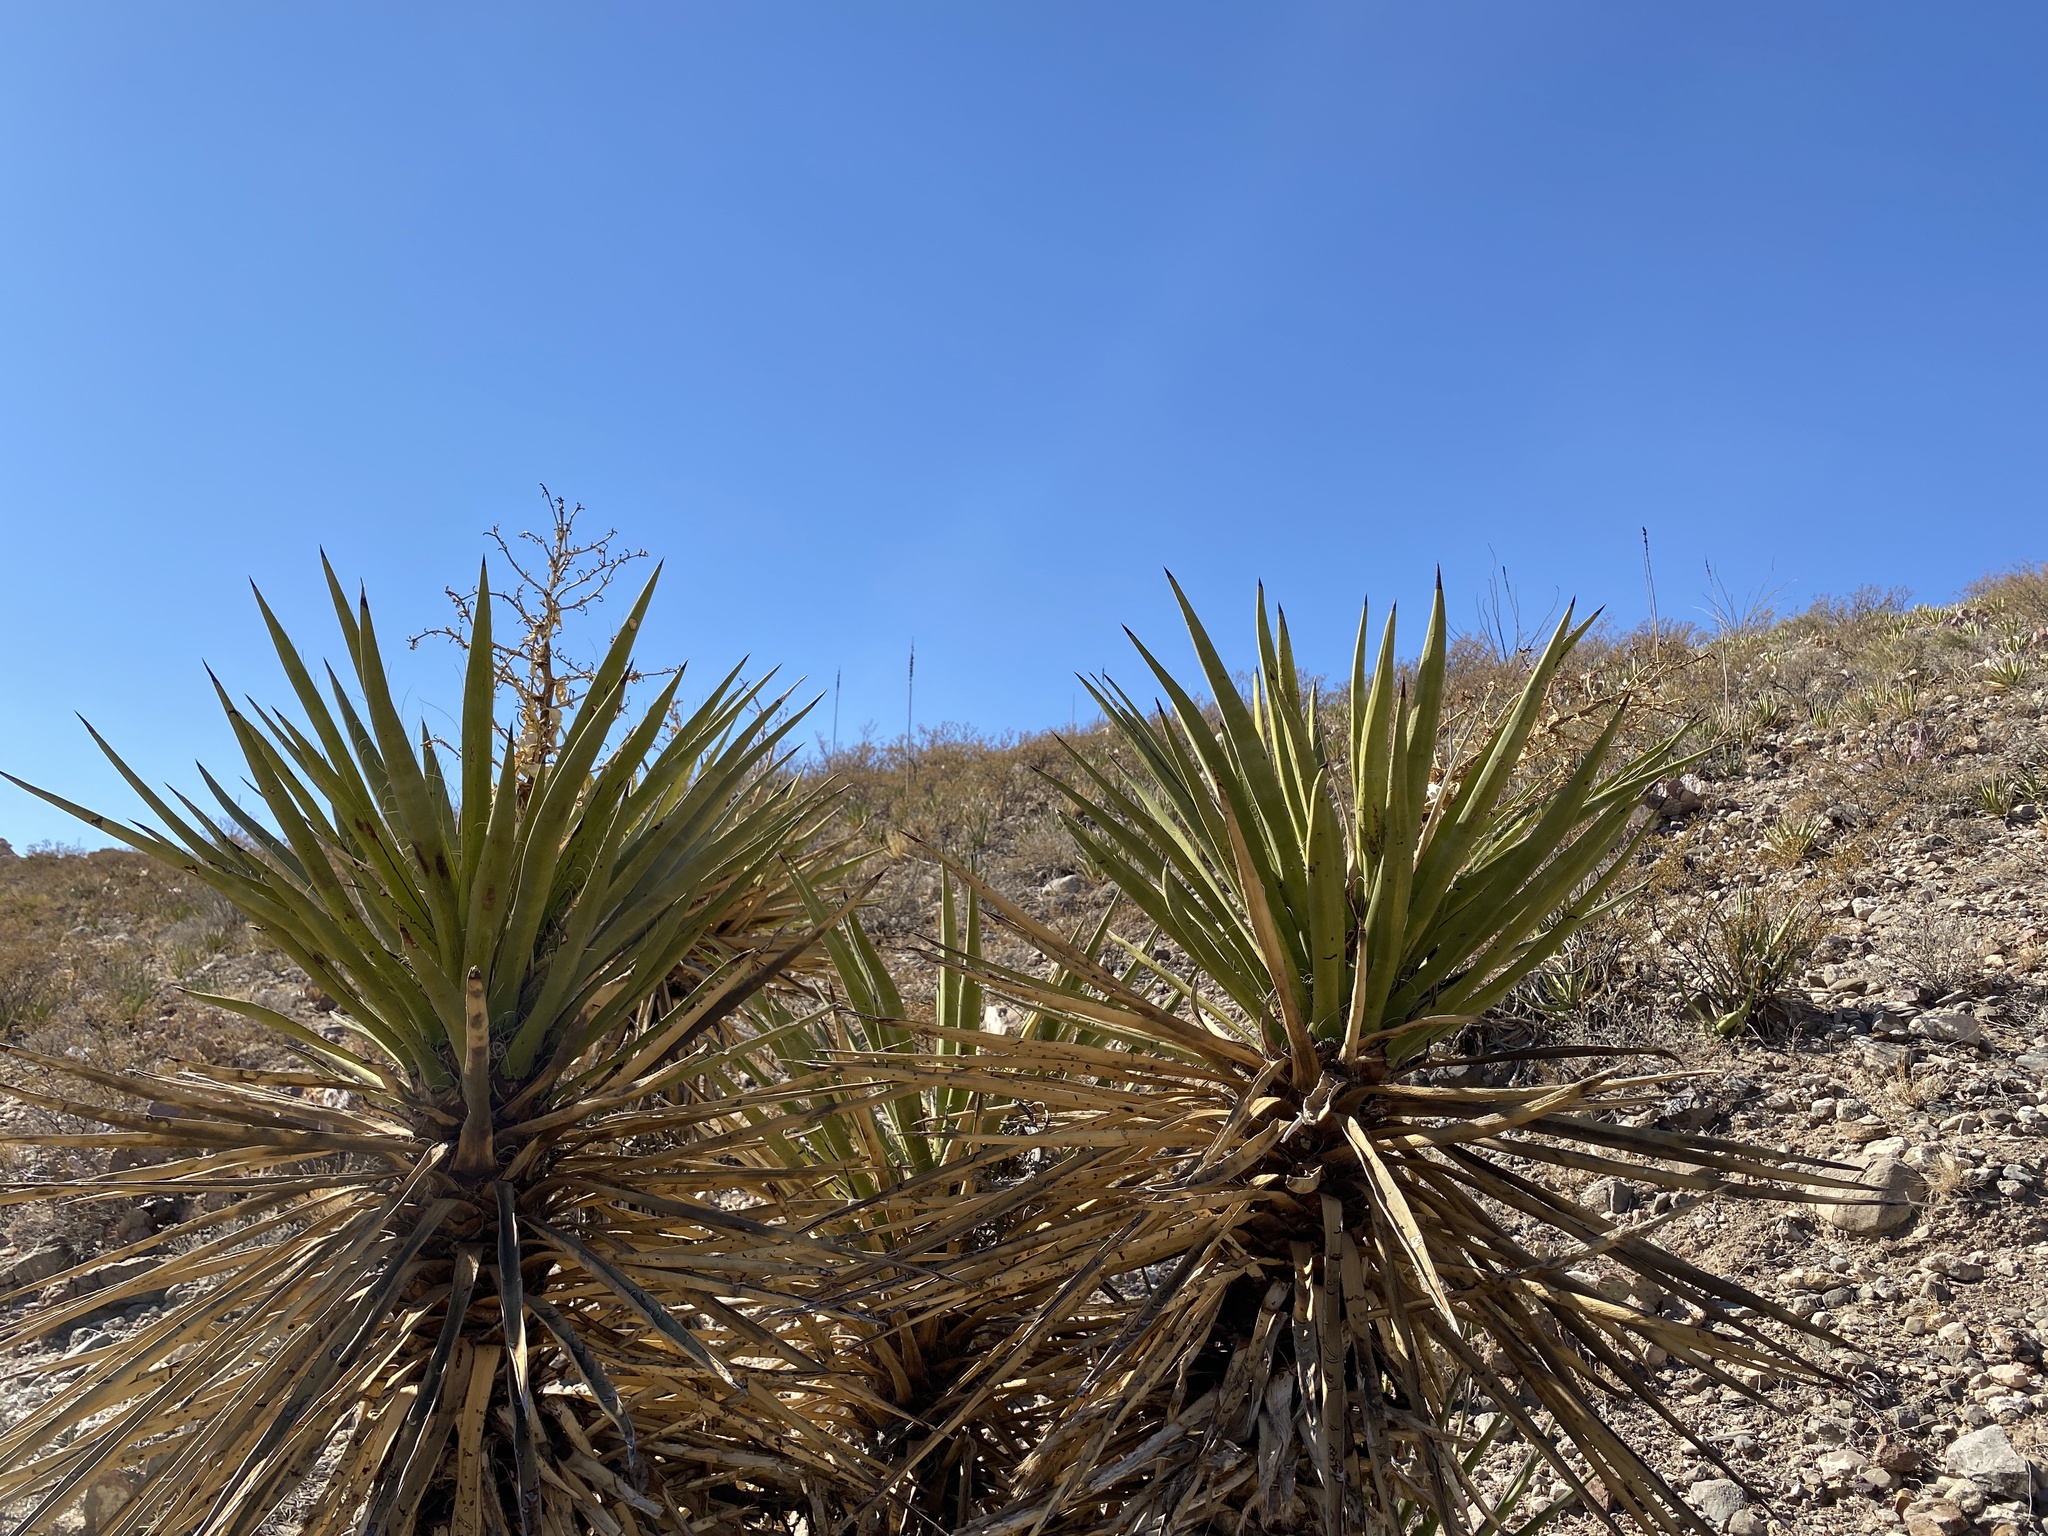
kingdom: Plantae
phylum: Tracheophyta
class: Liliopsida
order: Asparagales
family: Asparagaceae
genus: Yucca
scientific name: Yucca treculiana
